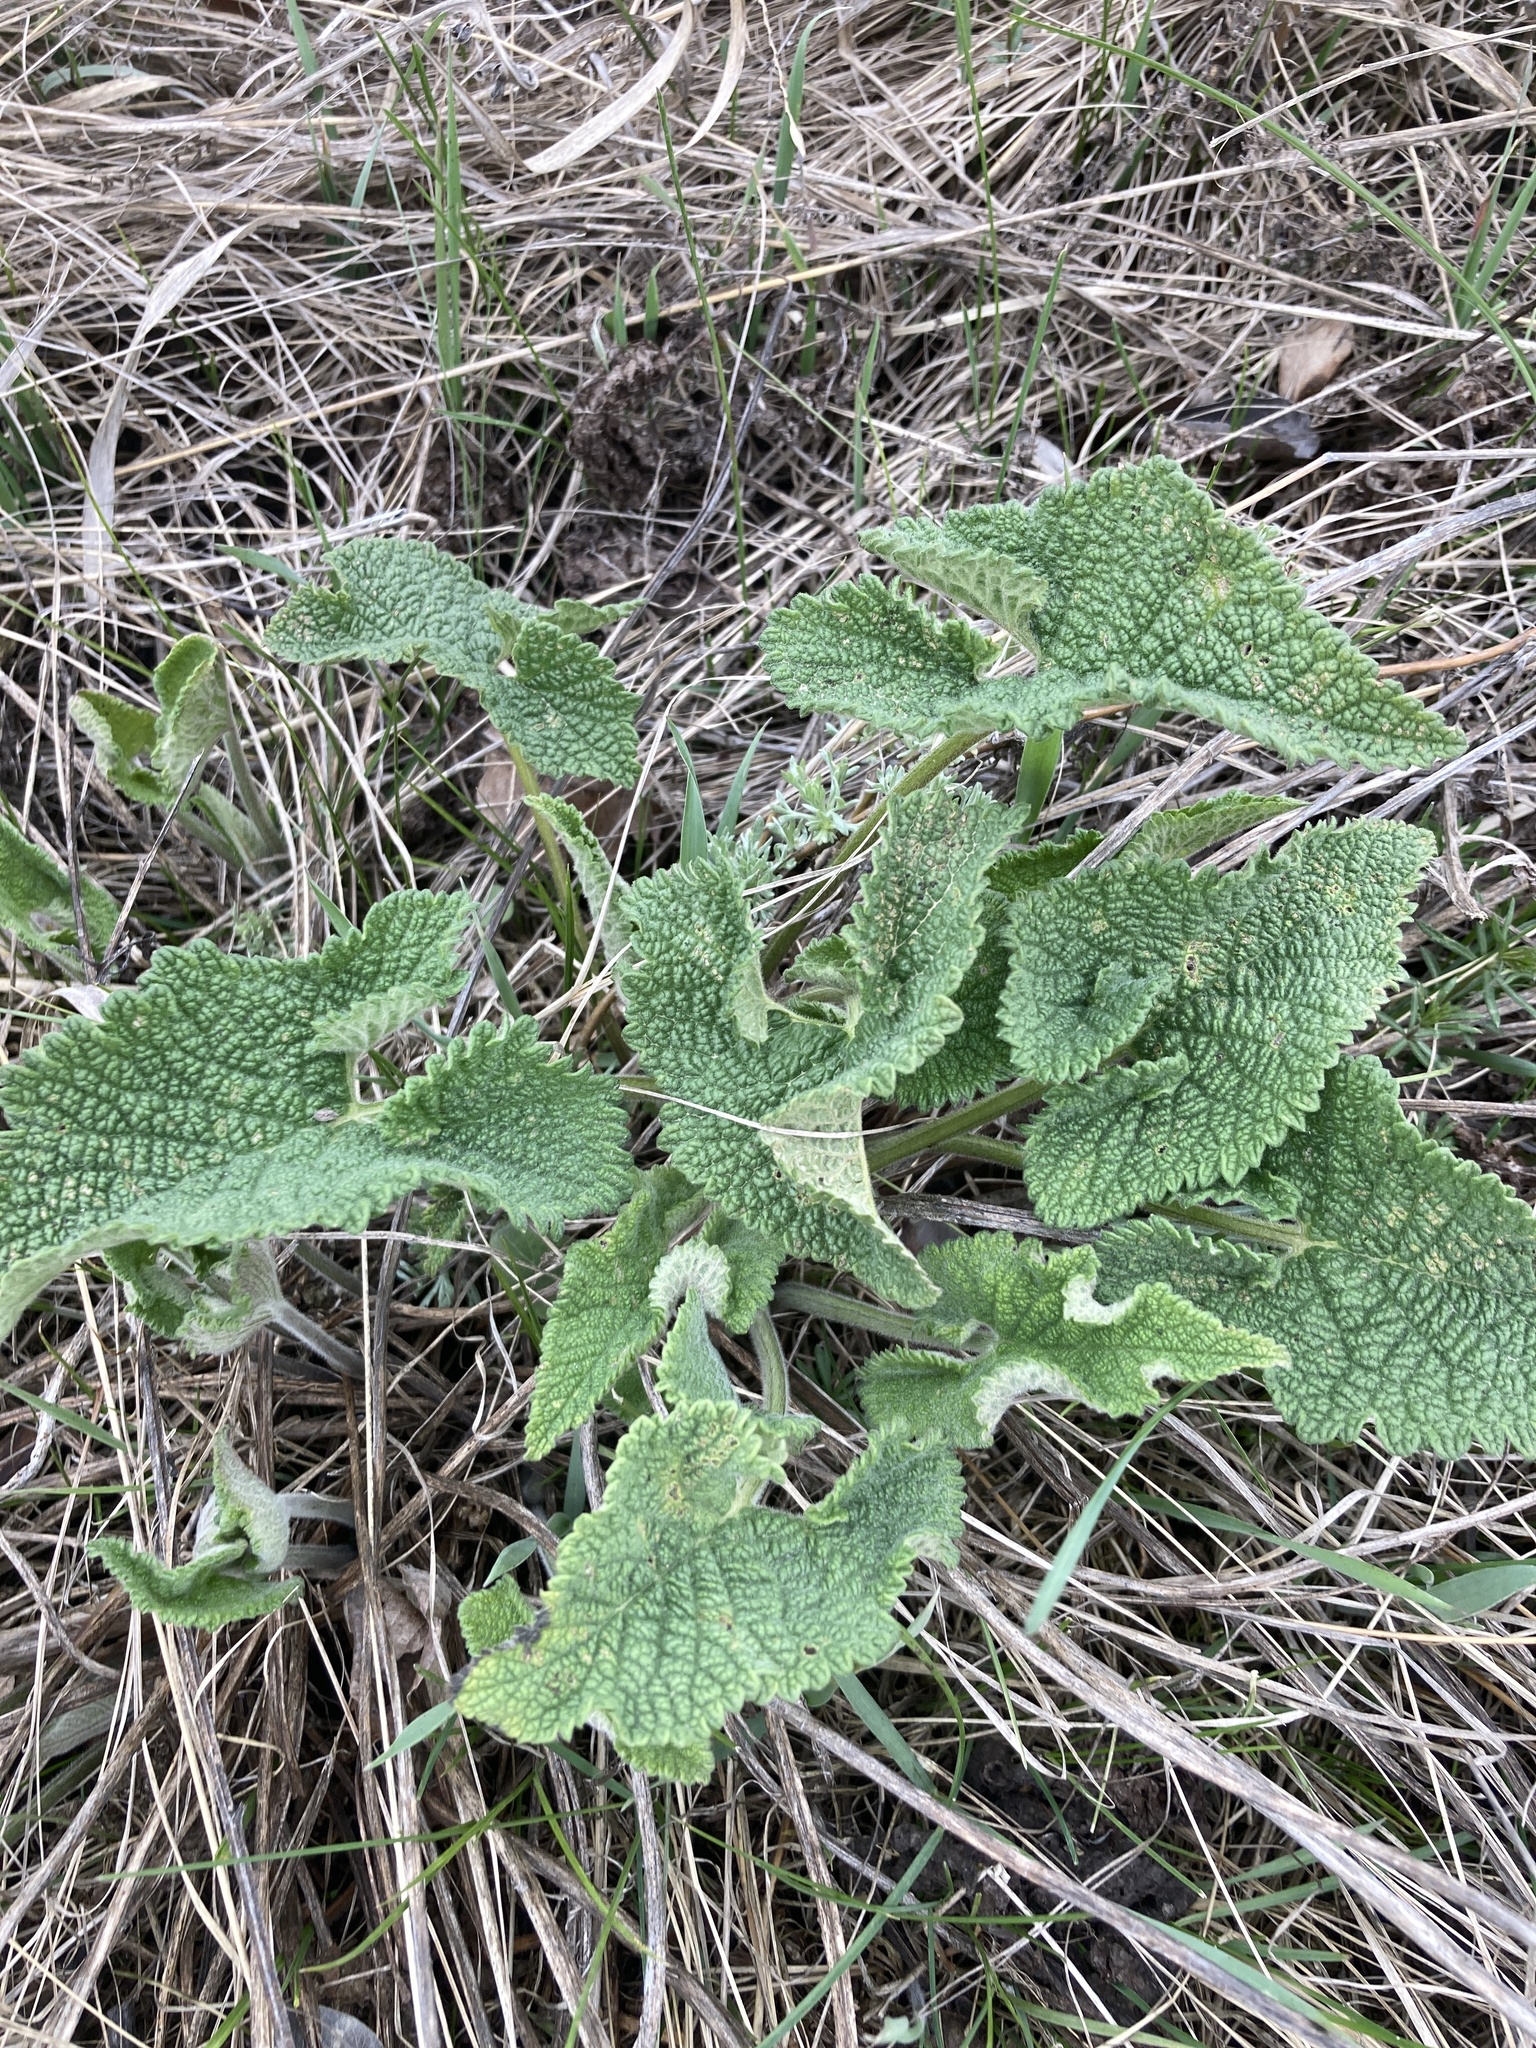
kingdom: Plantae
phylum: Tracheophyta
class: Magnoliopsida
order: Lamiales
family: Lamiaceae
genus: Phlomoides
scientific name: Phlomoides tuberosa
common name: Tuberous jerusalem sage
